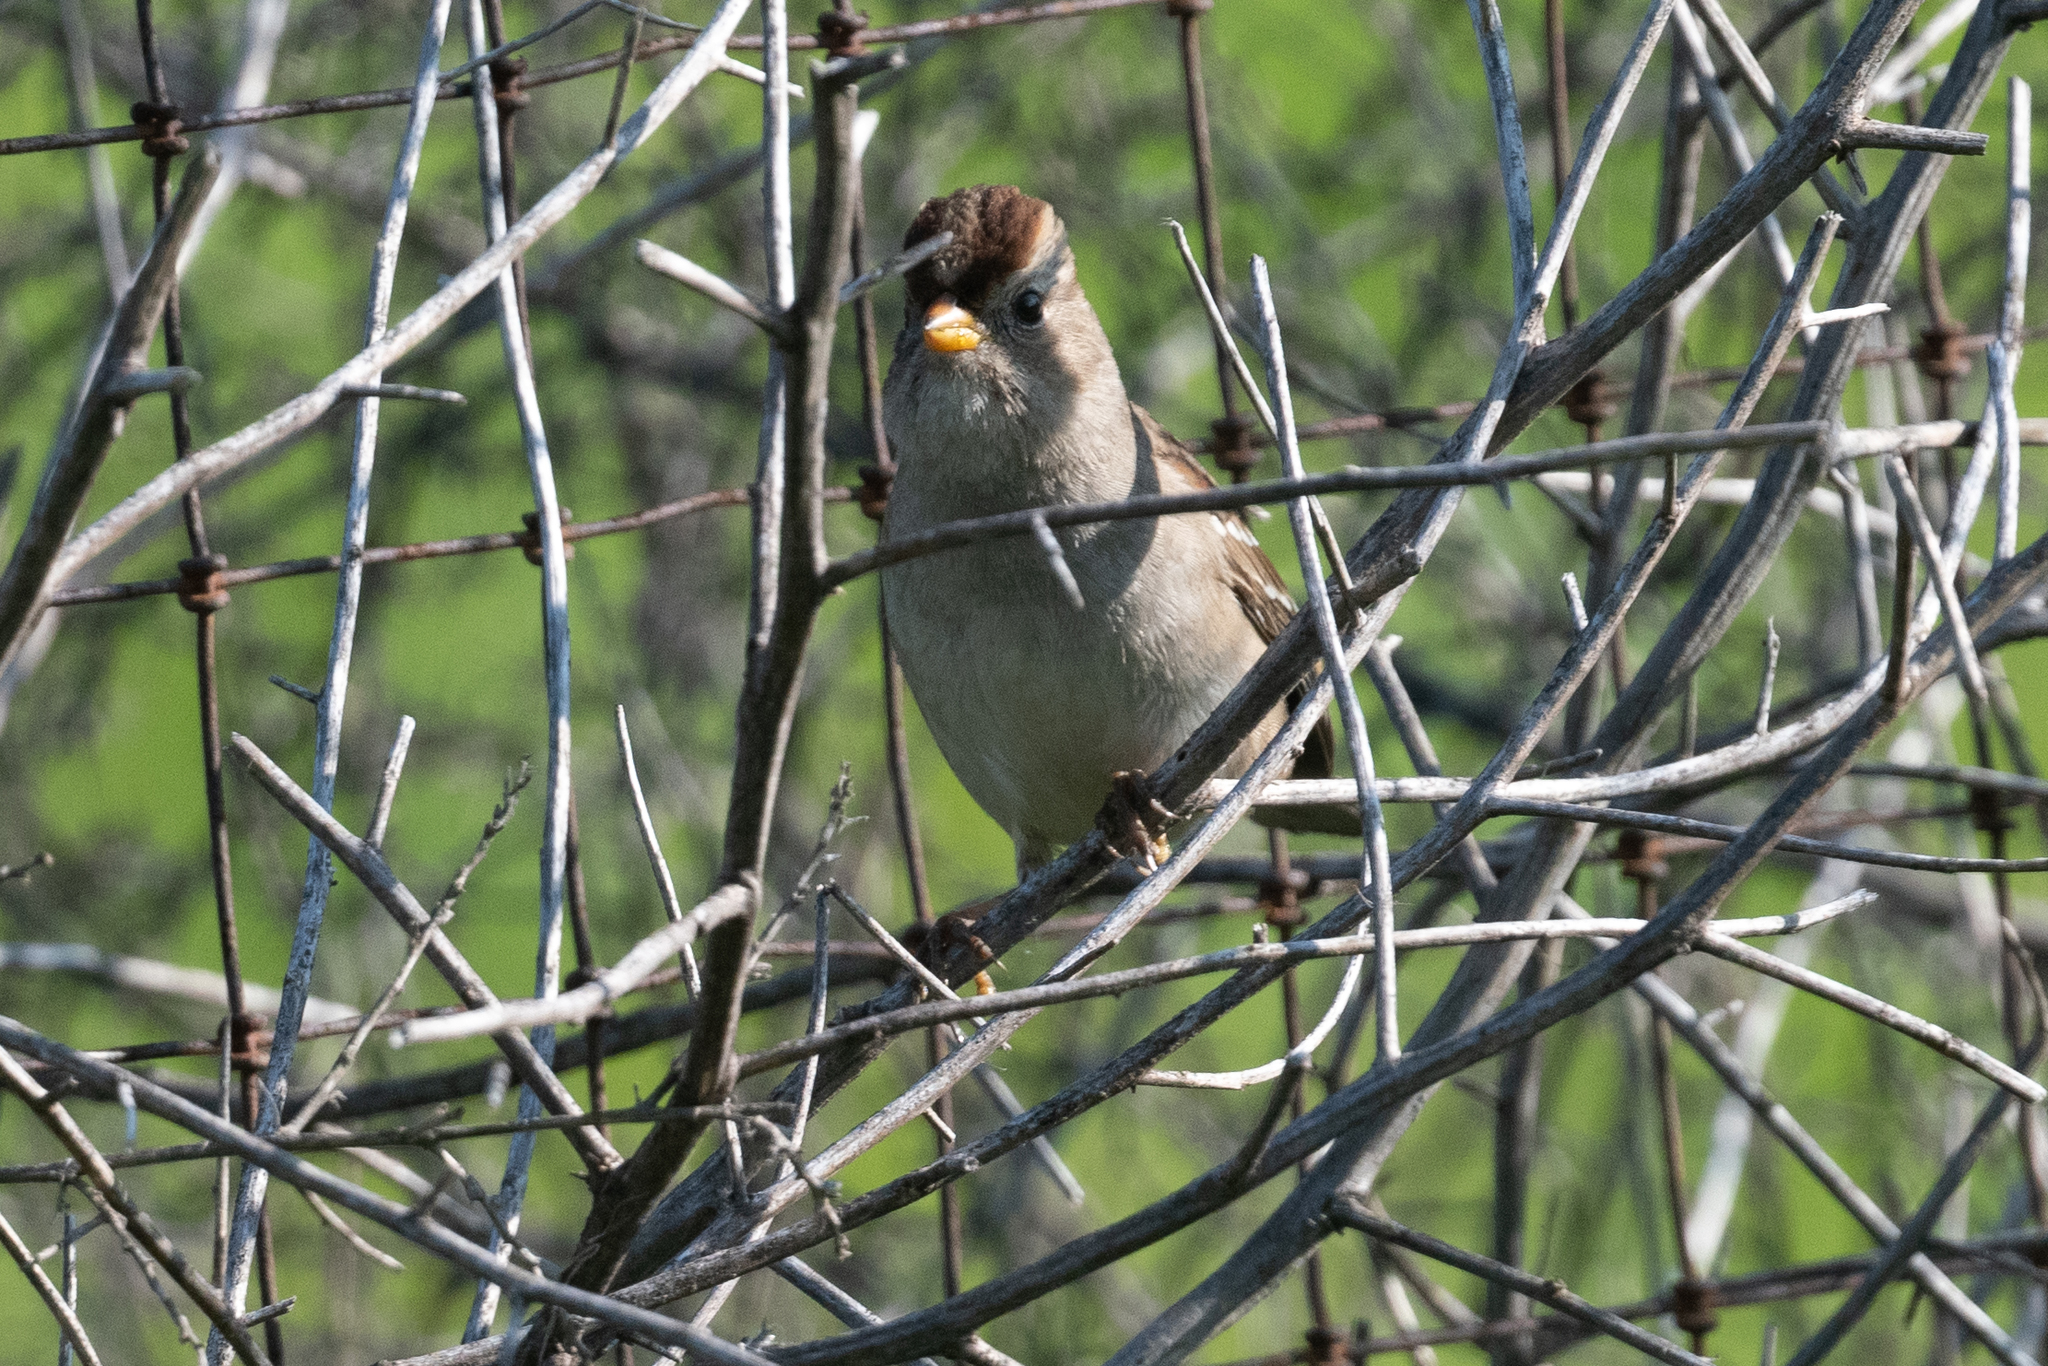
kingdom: Animalia
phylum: Chordata
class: Aves
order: Passeriformes
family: Passerellidae
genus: Zonotrichia
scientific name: Zonotrichia leucophrys
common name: White-crowned sparrow
